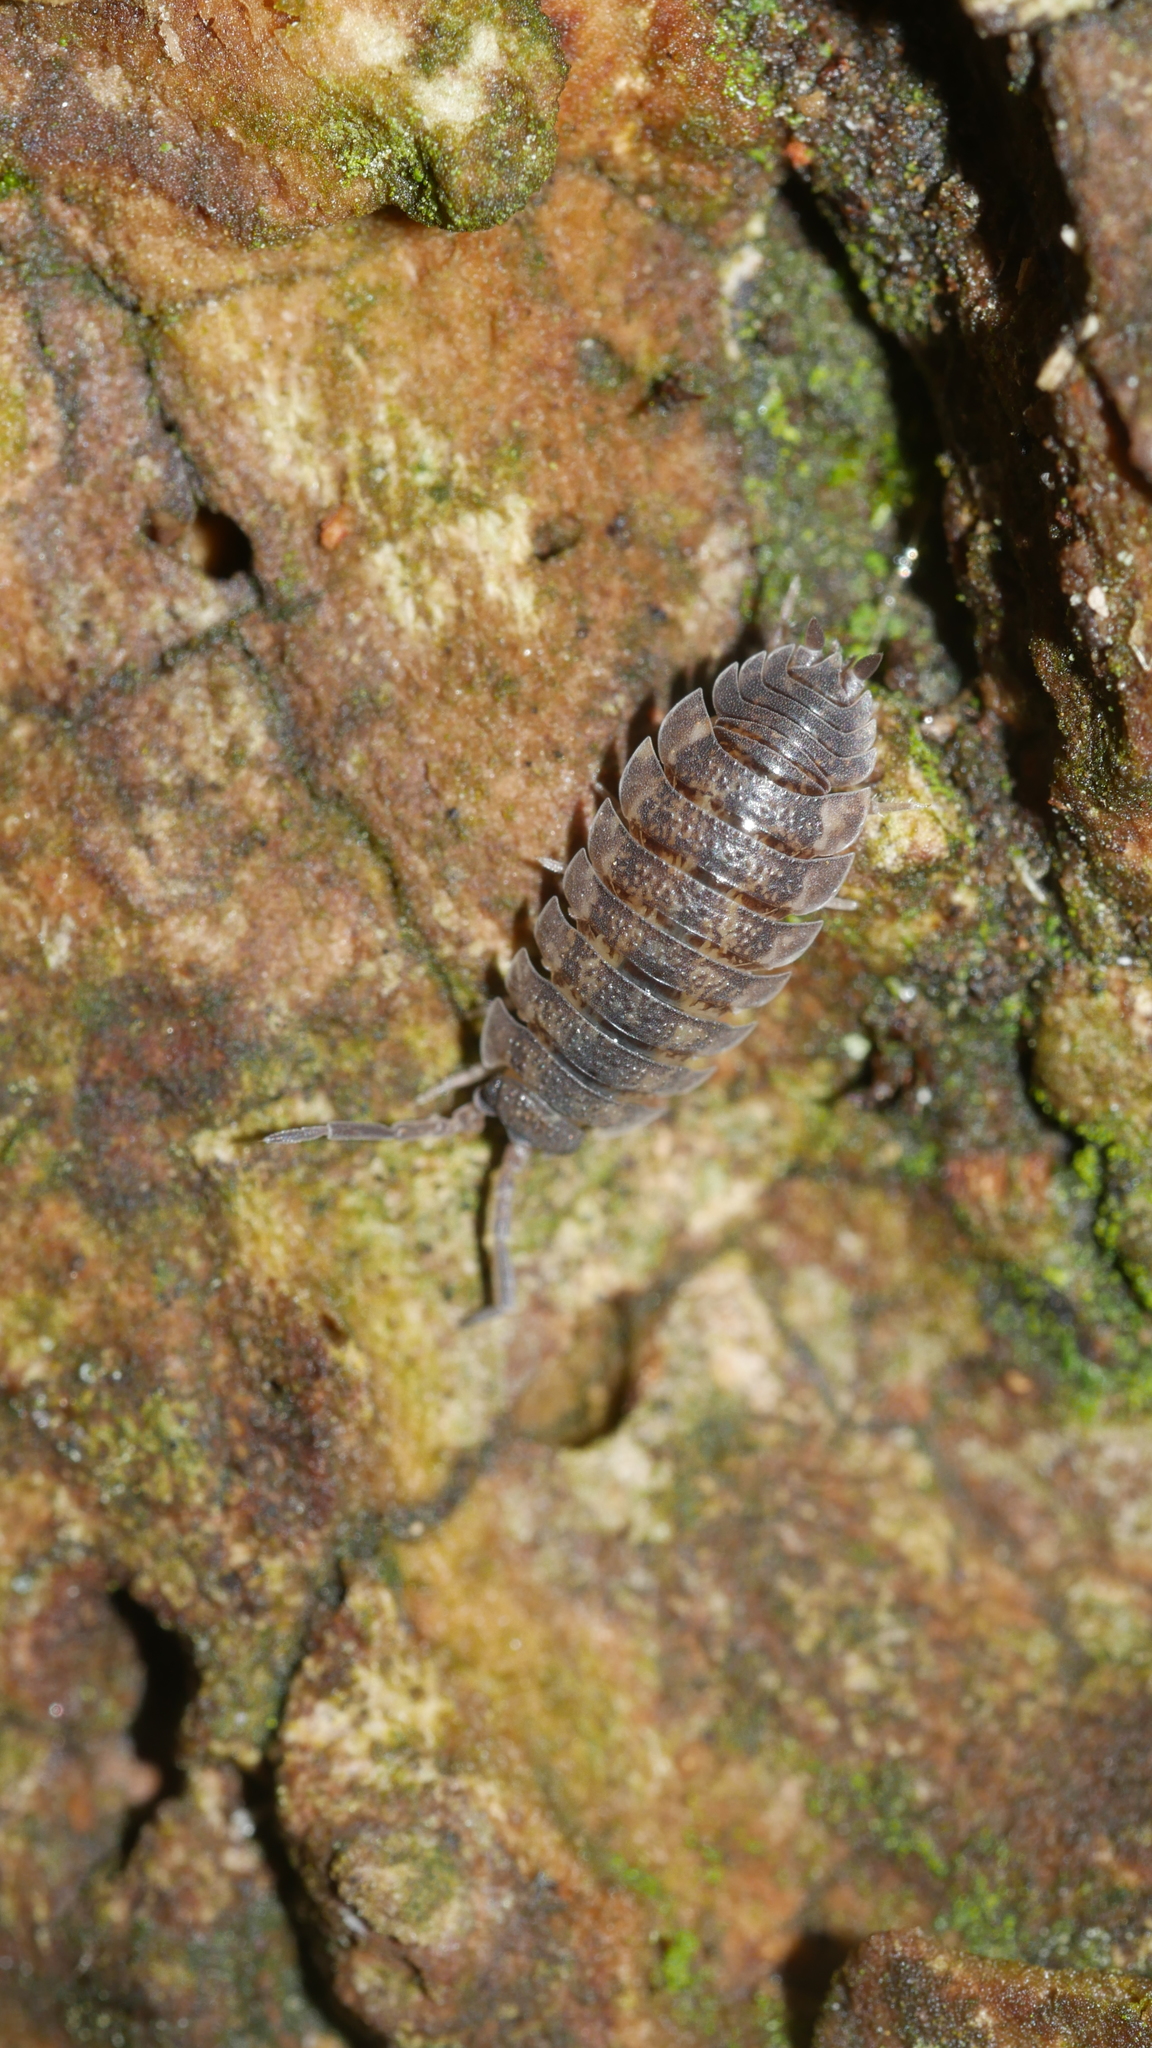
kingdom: Animalia
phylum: Arthropoda
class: Malacostraca
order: Isopoda
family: Porcellionidae
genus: Porcellio
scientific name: Porcellio scaber
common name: Common rough woodlouse
